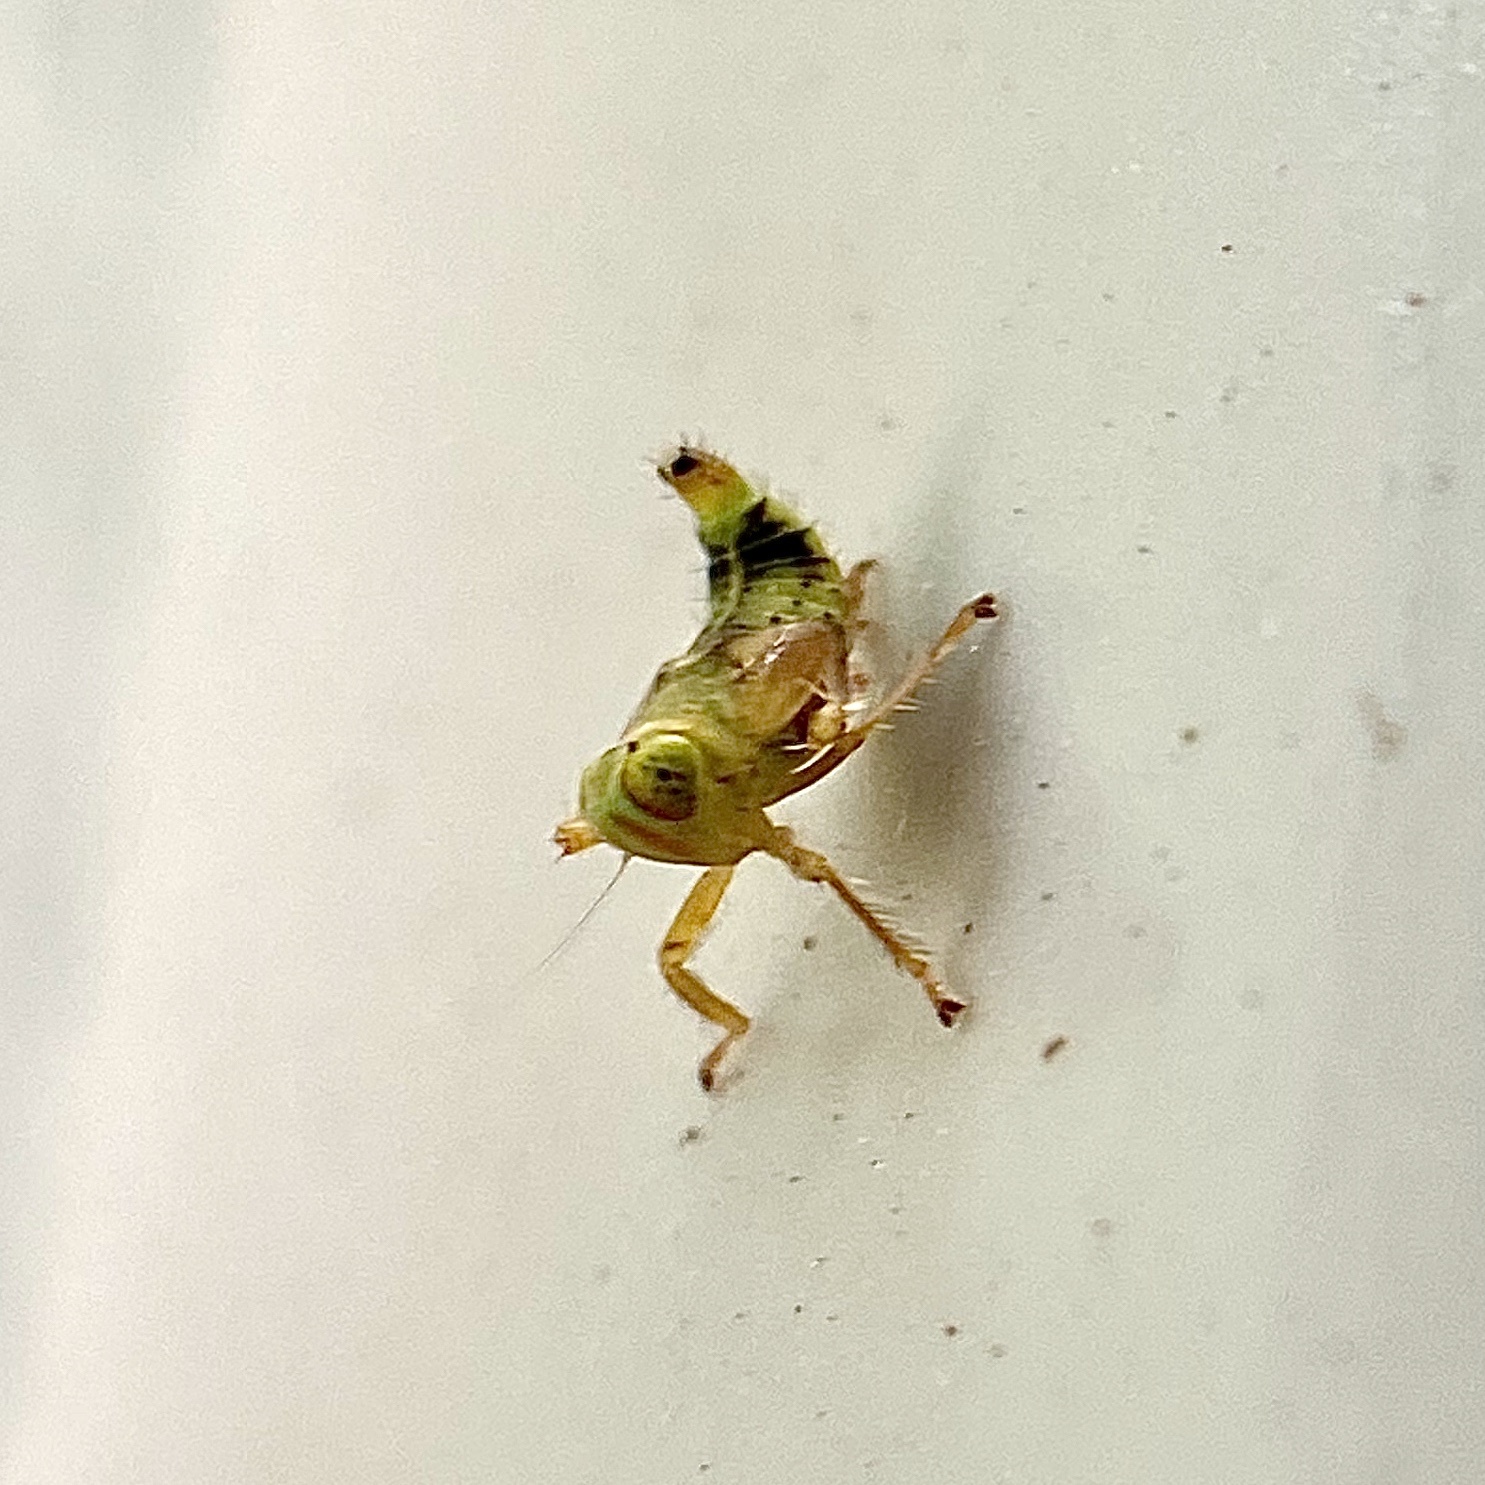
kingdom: Animalia
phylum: Arthropoda
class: Insecta
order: Hemiptera
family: Cicadellidae
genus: Jikradia
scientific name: Jikradia olitoria
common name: Coppery leafhopper
